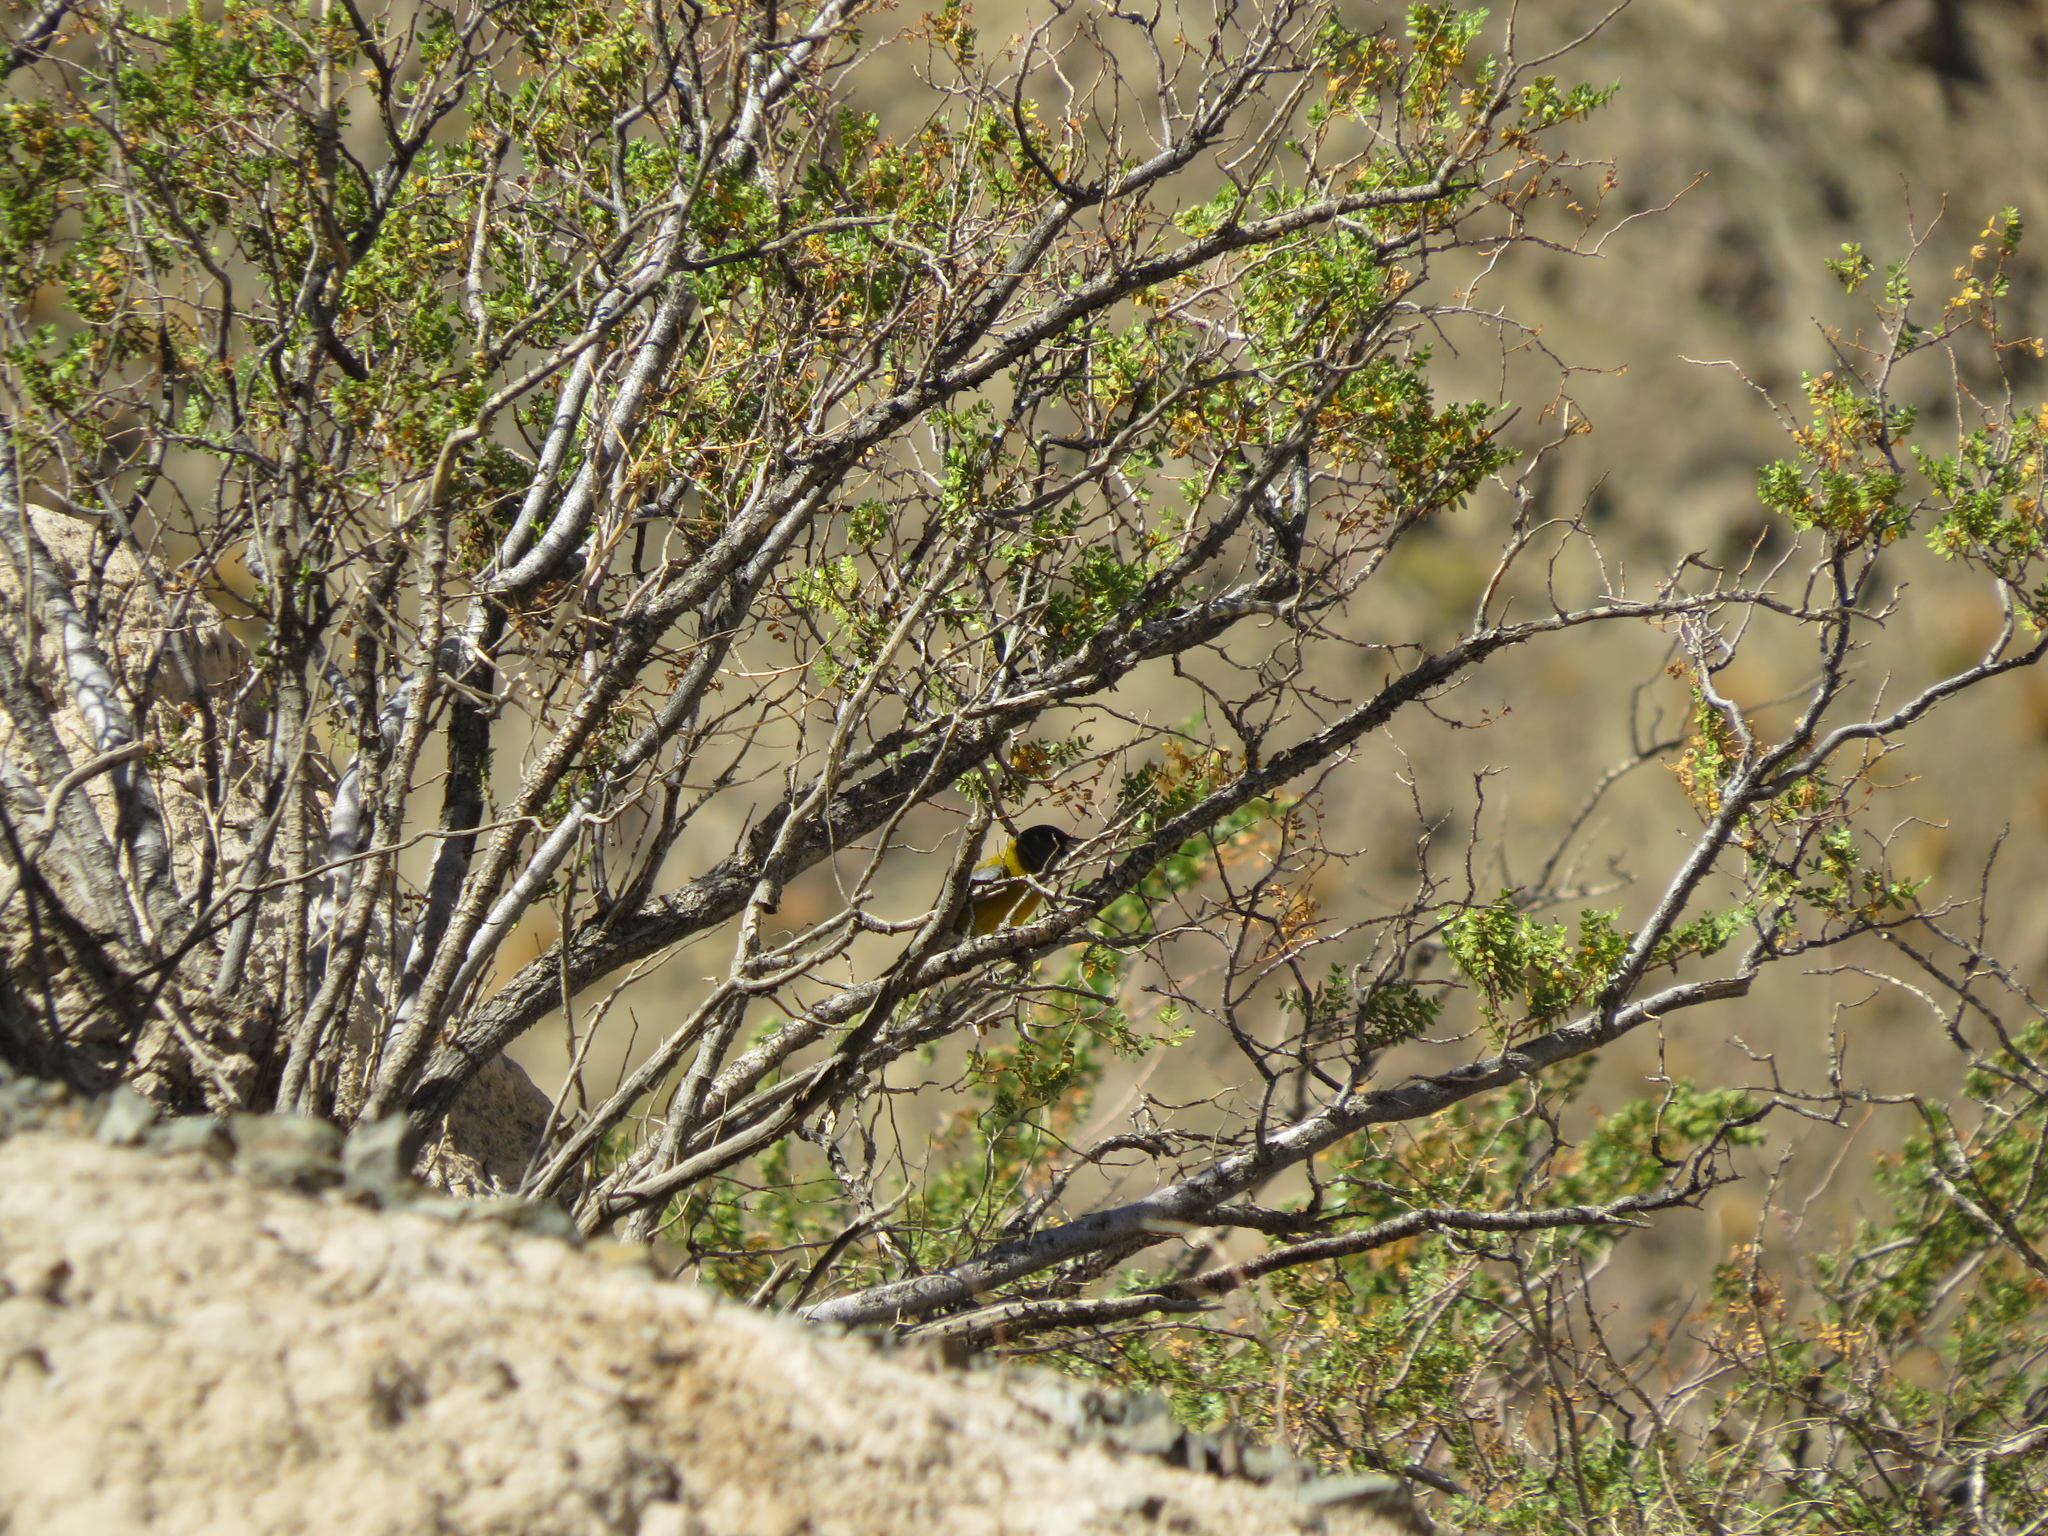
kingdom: Animalia
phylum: Chordata
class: Aves
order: Passeriformes
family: Thraupidae
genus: Phrygilus
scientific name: Phrygilus gayi
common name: Grey-hooded sierra finch
